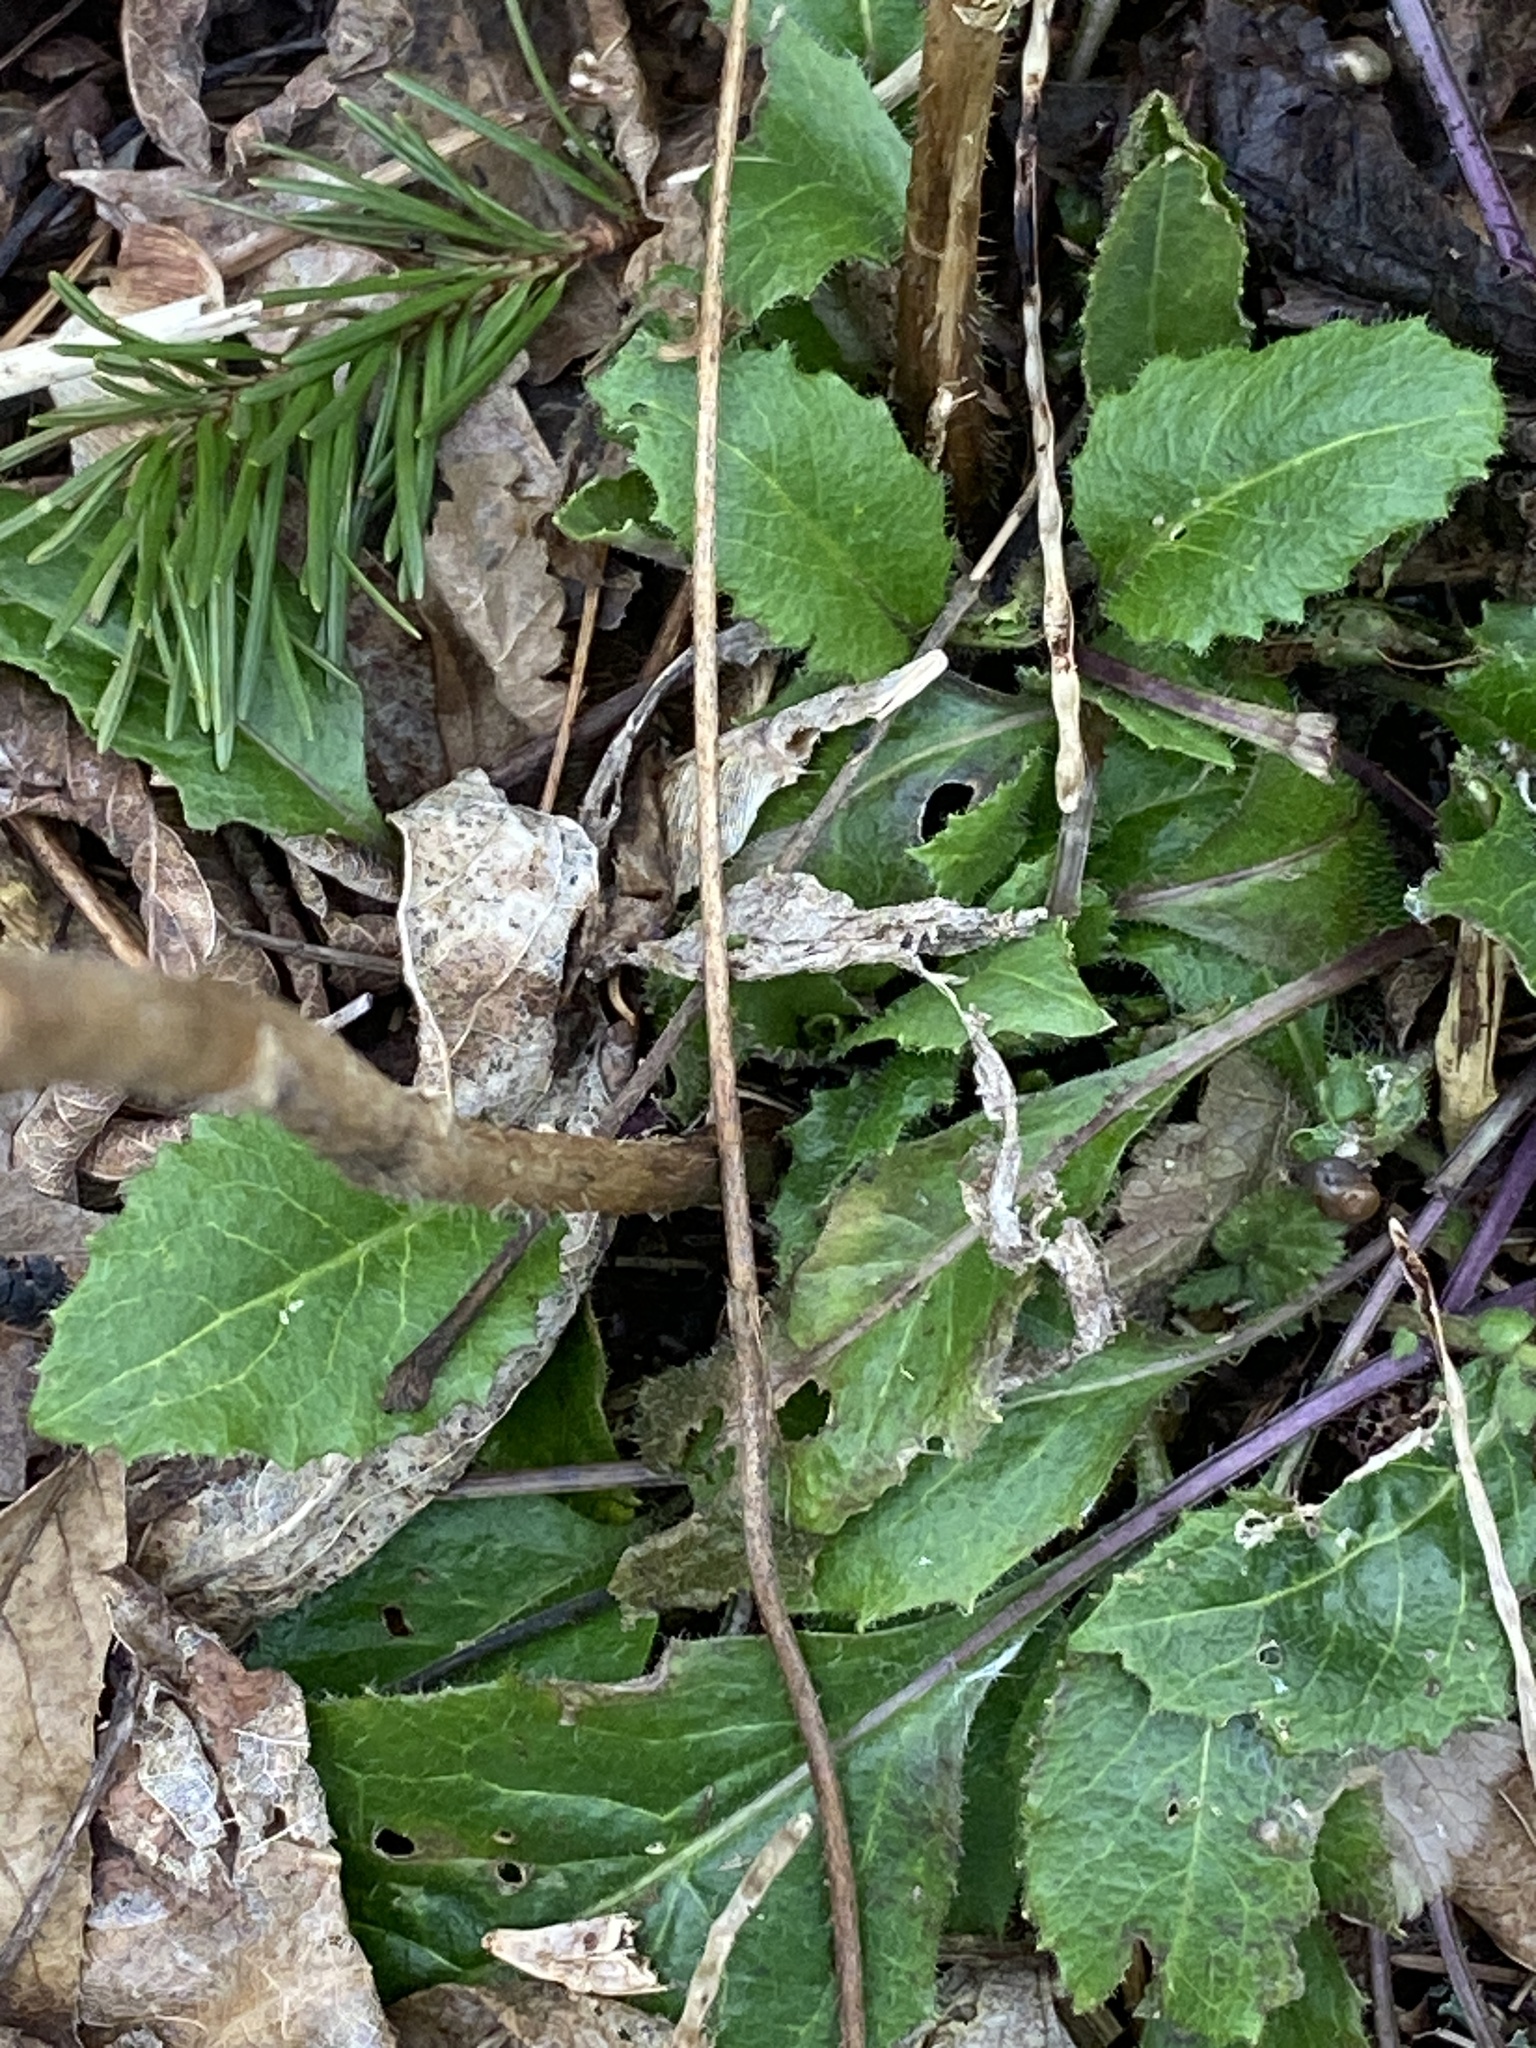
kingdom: Plantae
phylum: Tracheophyta
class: Magnoliopsida
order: Brassicales
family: Brassicaceae
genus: Hesperis
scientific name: Hesperis matronalis
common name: Dame's-violet
